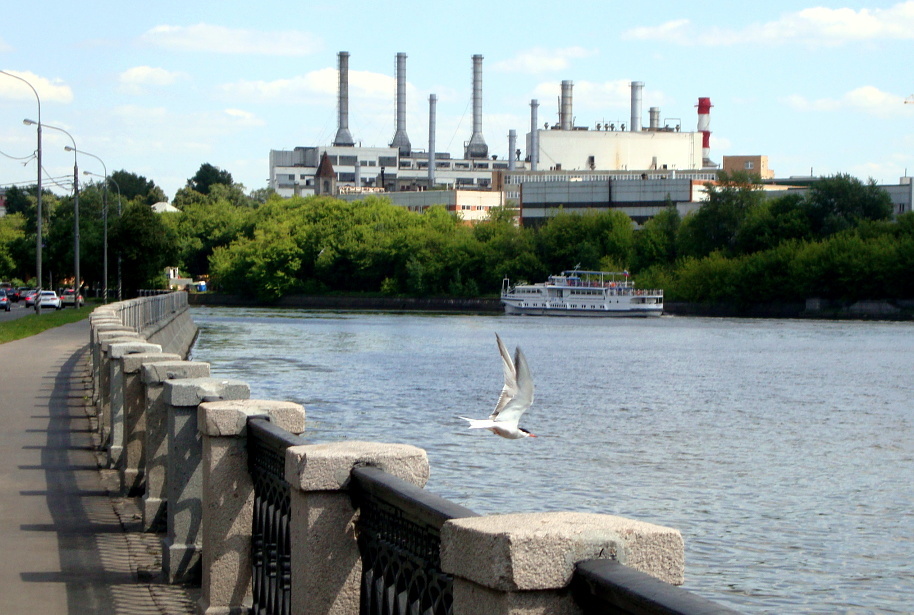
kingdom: Animalia
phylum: Chordata
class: Aves
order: Charadriiformes
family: Laridae
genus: Sterna
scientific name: Sterna hirundo
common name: Common tern
